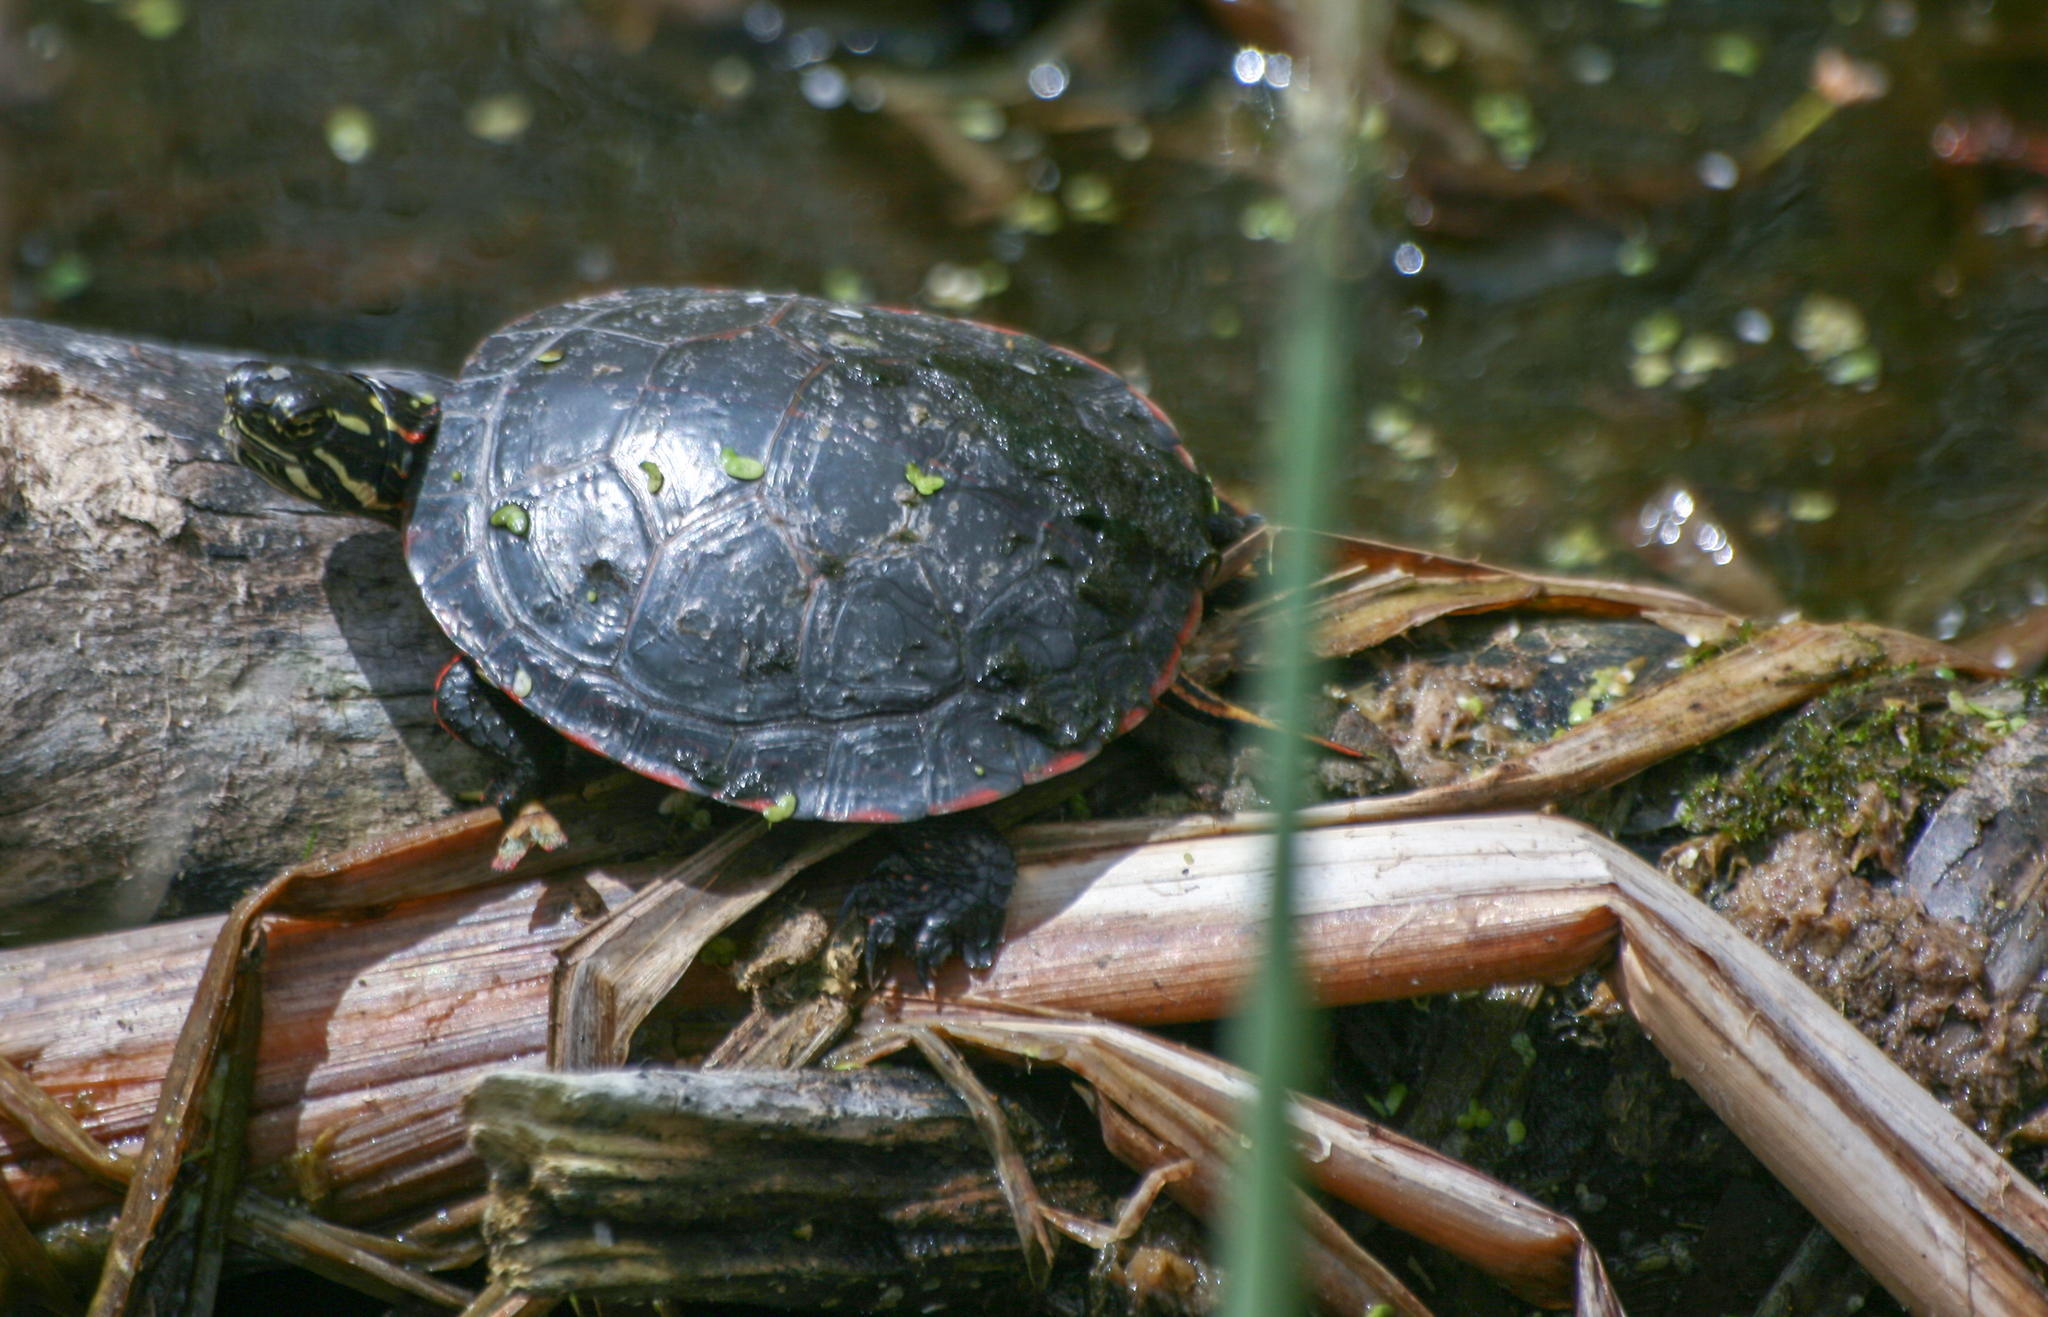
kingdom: Animalia
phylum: Chordata
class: Testudines
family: Emydidae
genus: Chrysemys
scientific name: Chrysemys picta
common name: Painted turtle
